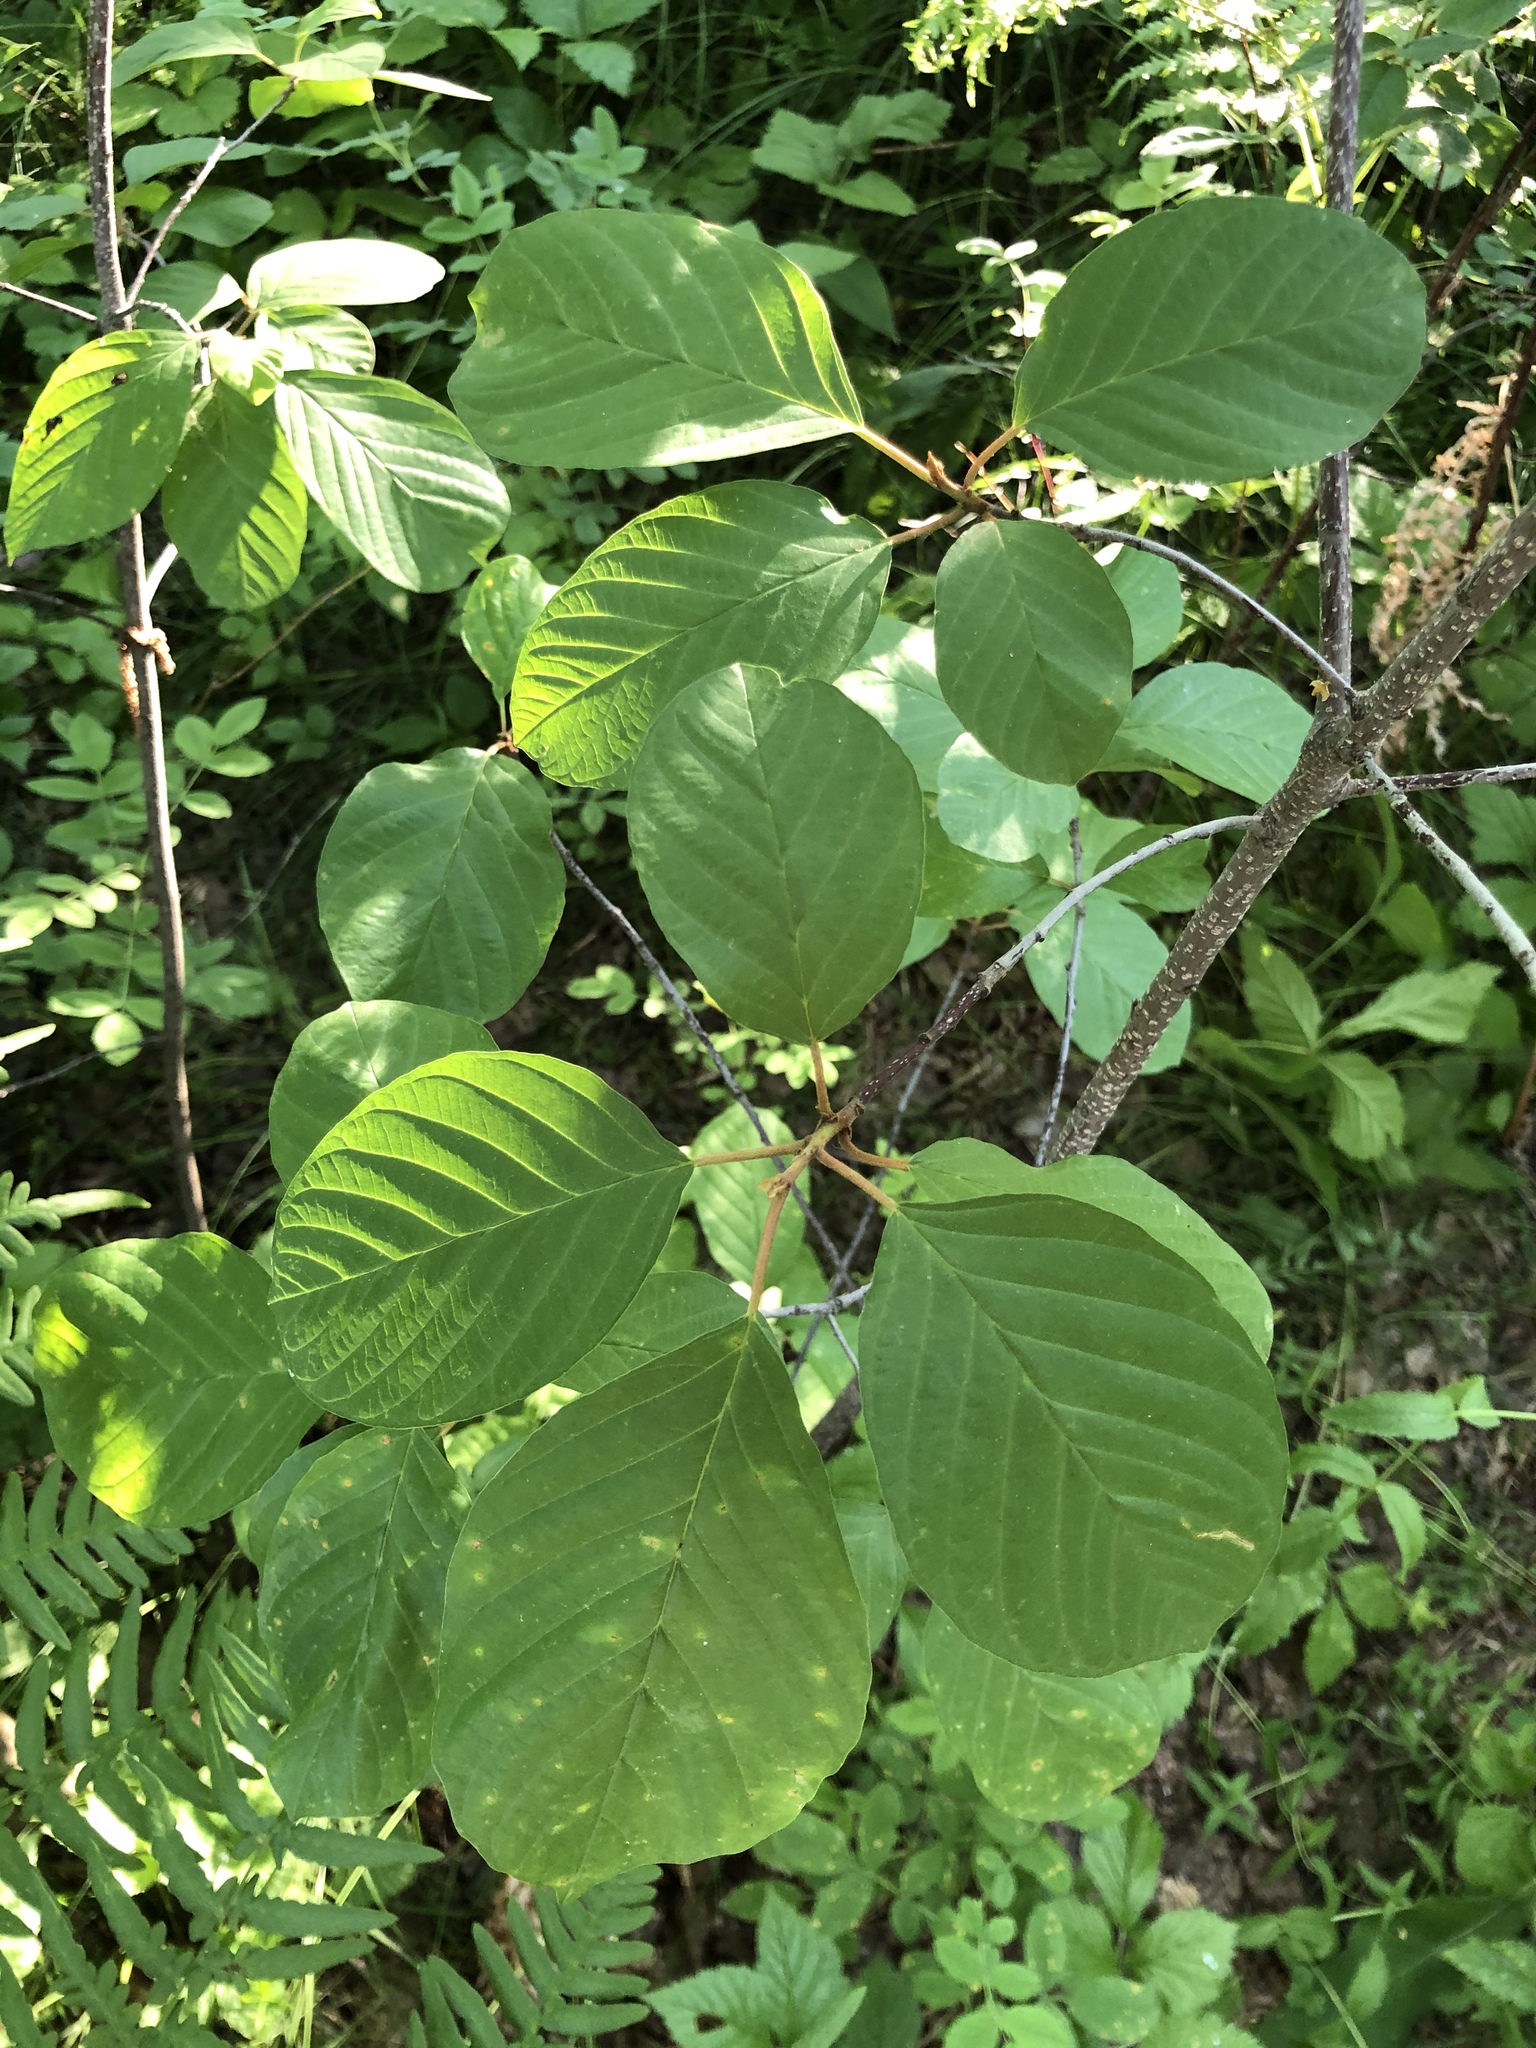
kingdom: Plantae
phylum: Tracheophyta
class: Magnoliopsida
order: Rosales
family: Rhamnaceae
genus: Frangula
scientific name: Frangula alnus
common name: Alder buckthorn
